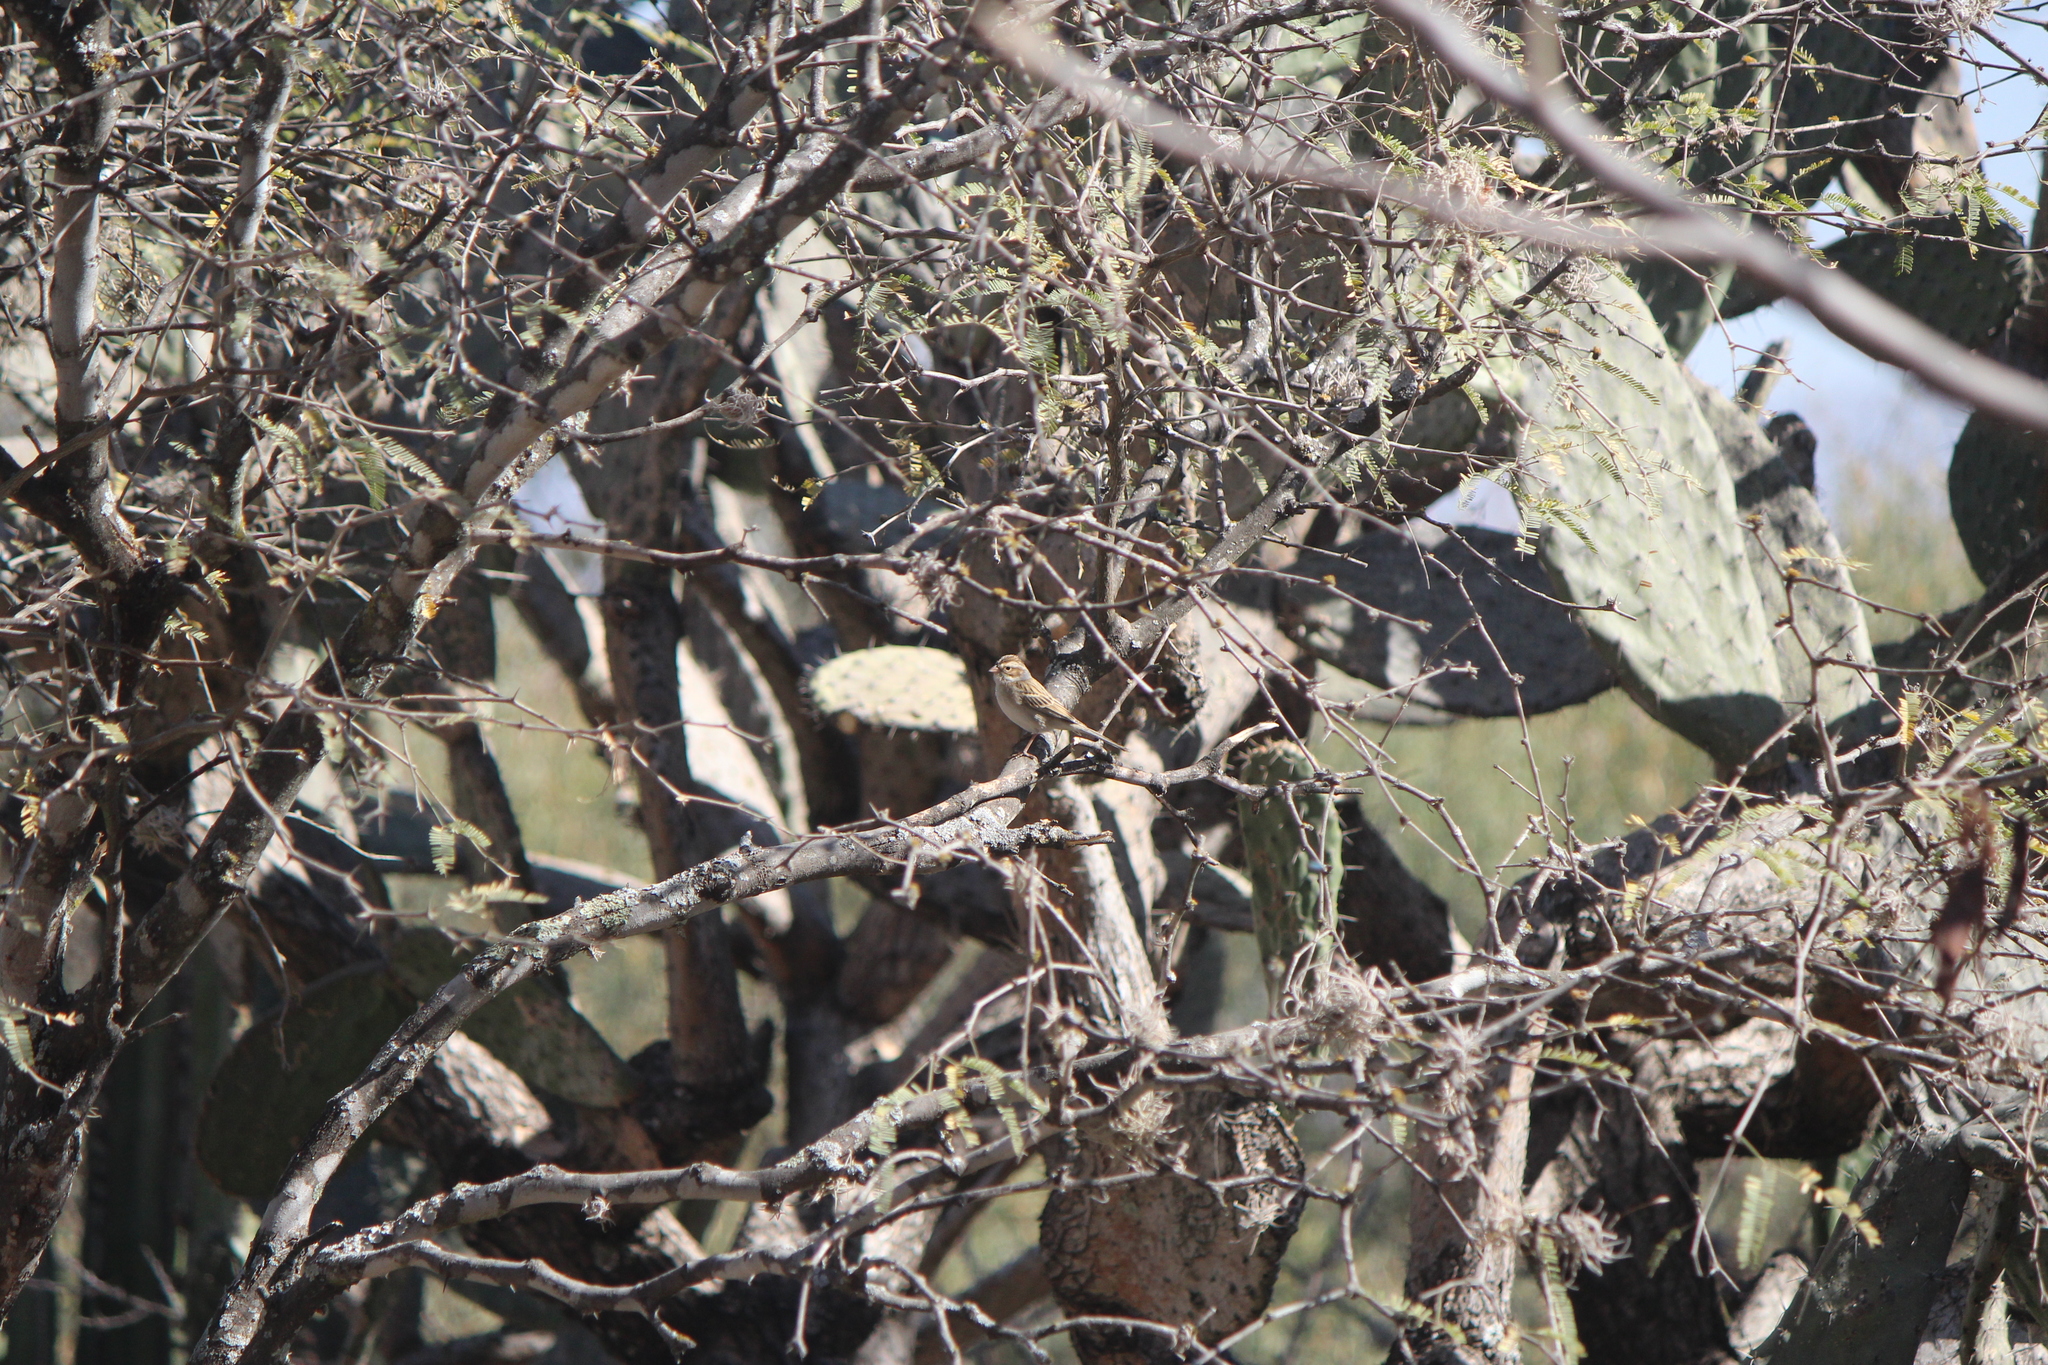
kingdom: Animalia
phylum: Chordata
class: Aves
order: Passeriformes
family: Passerellidae
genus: Spizella
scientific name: Spizella pallida
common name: Clay-colored sparrow
